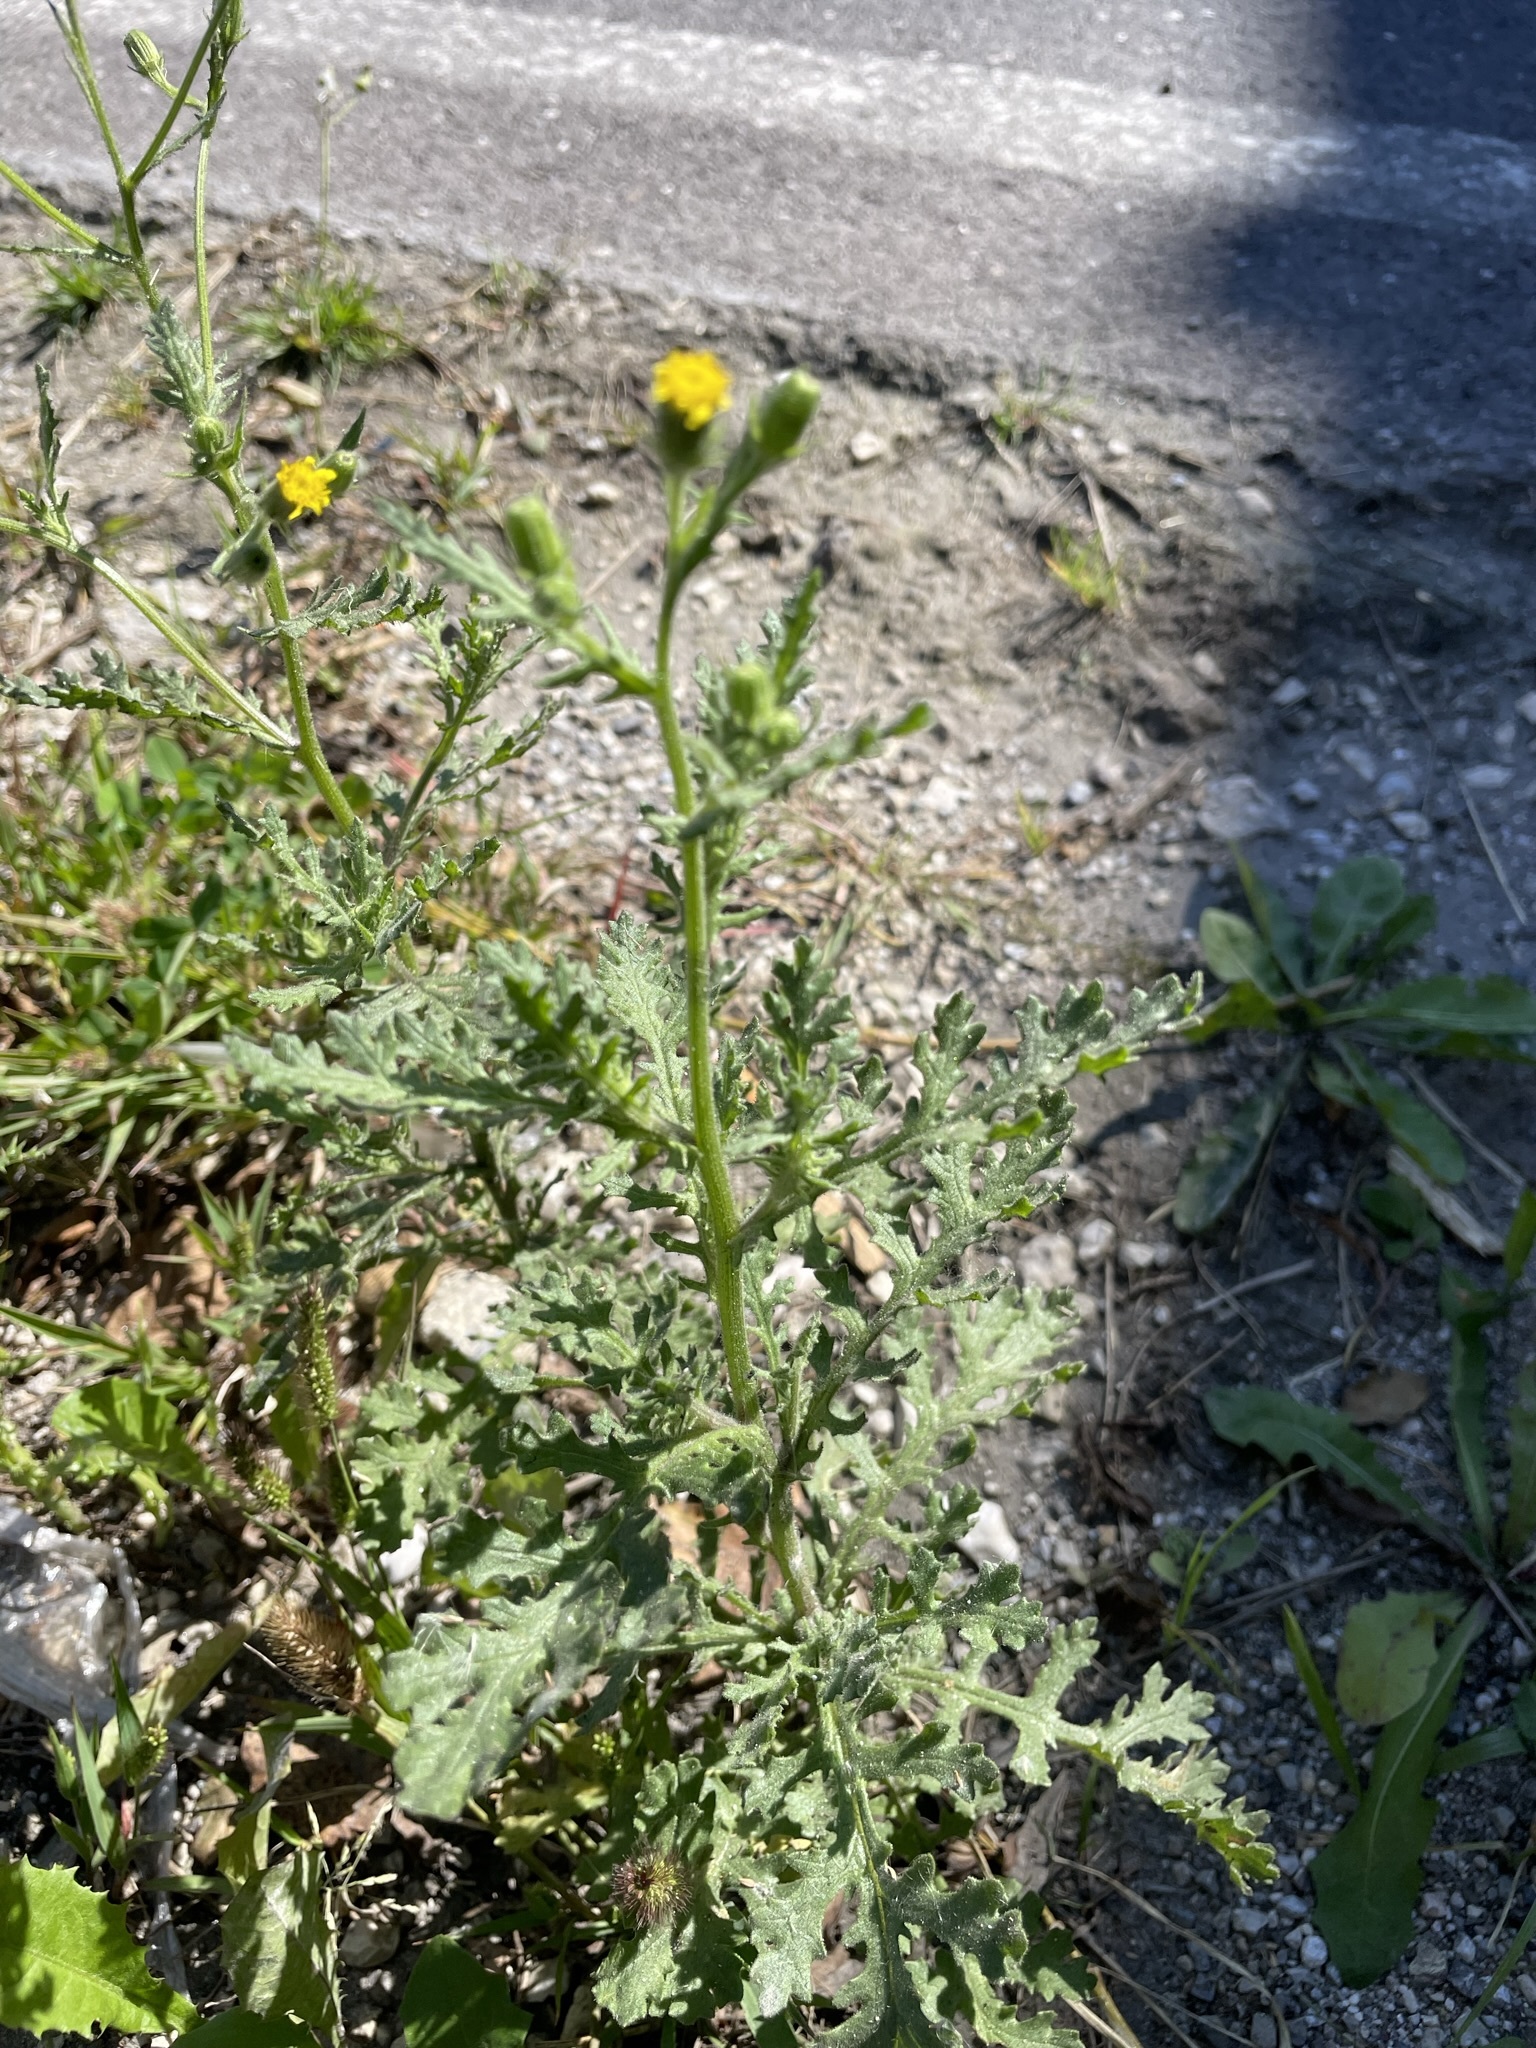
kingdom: Plantae
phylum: Tracheophyta
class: Magnoliopsida
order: Asterales
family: Asteraceae
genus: Senecio
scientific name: Senecio viscosus
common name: Sticky groundsel
